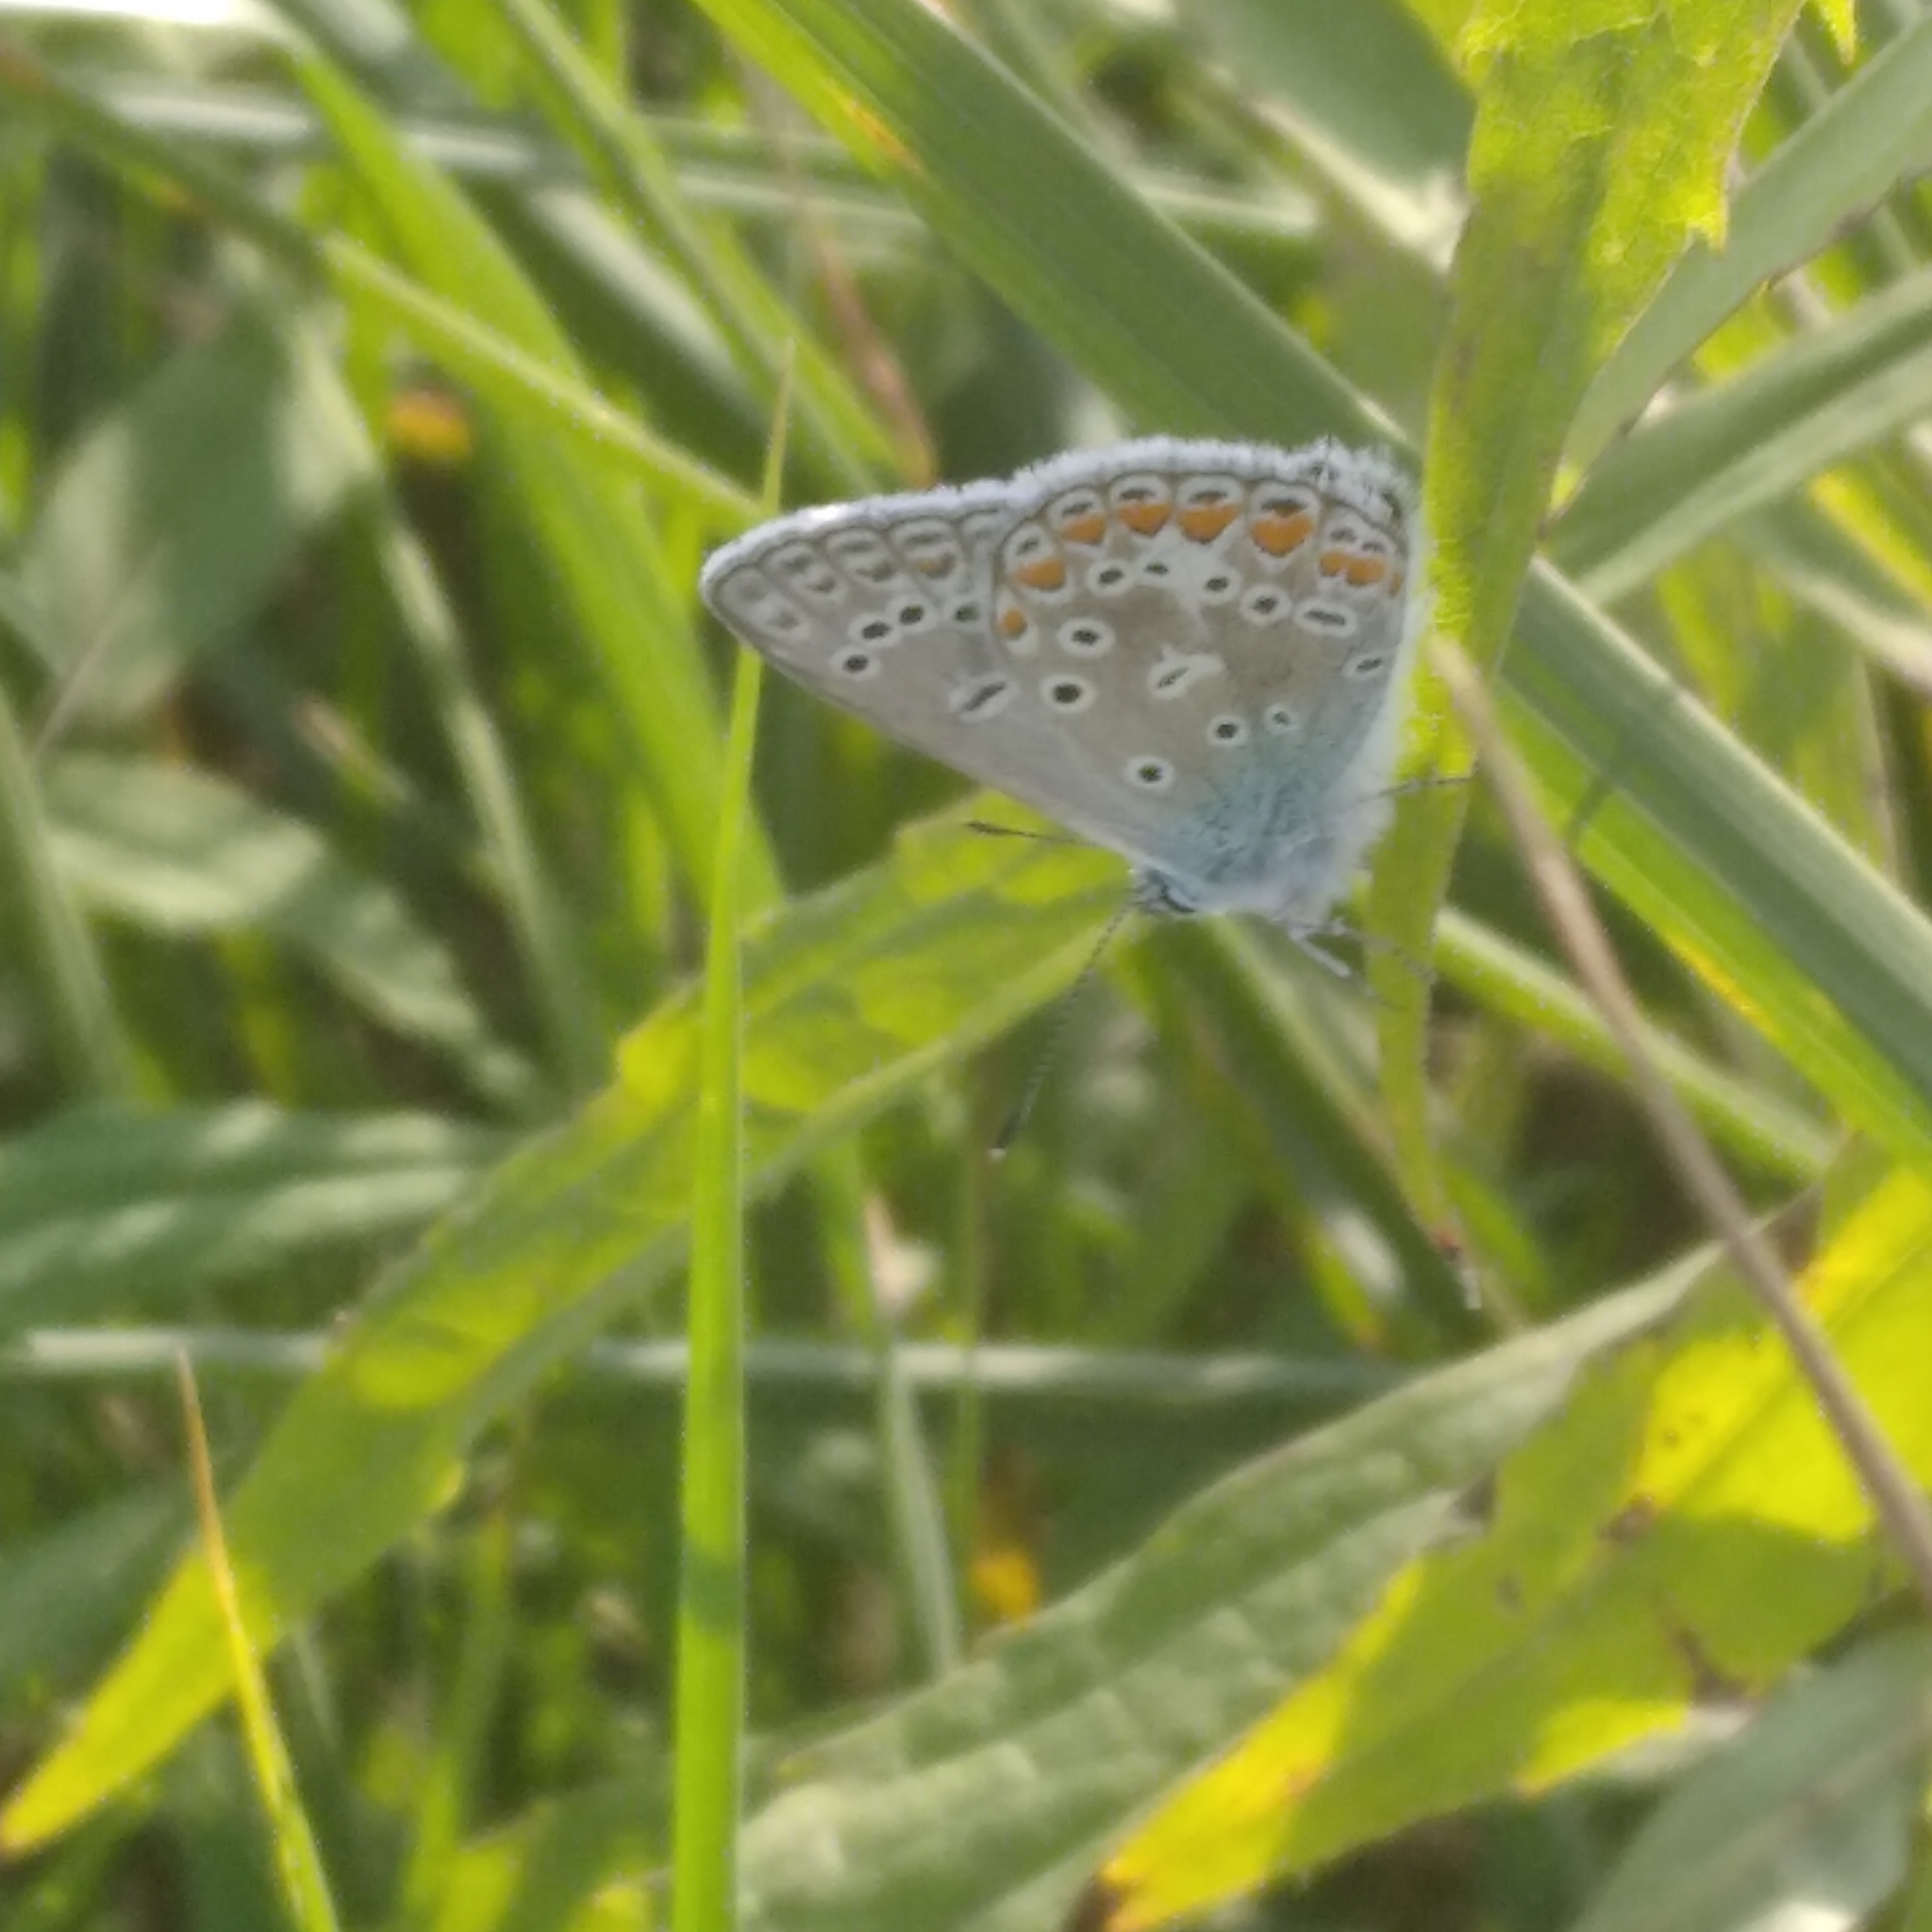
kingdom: Animalia
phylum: Arthropoda
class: Insecta
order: Lepidoptera
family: Lycaenidae
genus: Polyommatus
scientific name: Polyommatus
